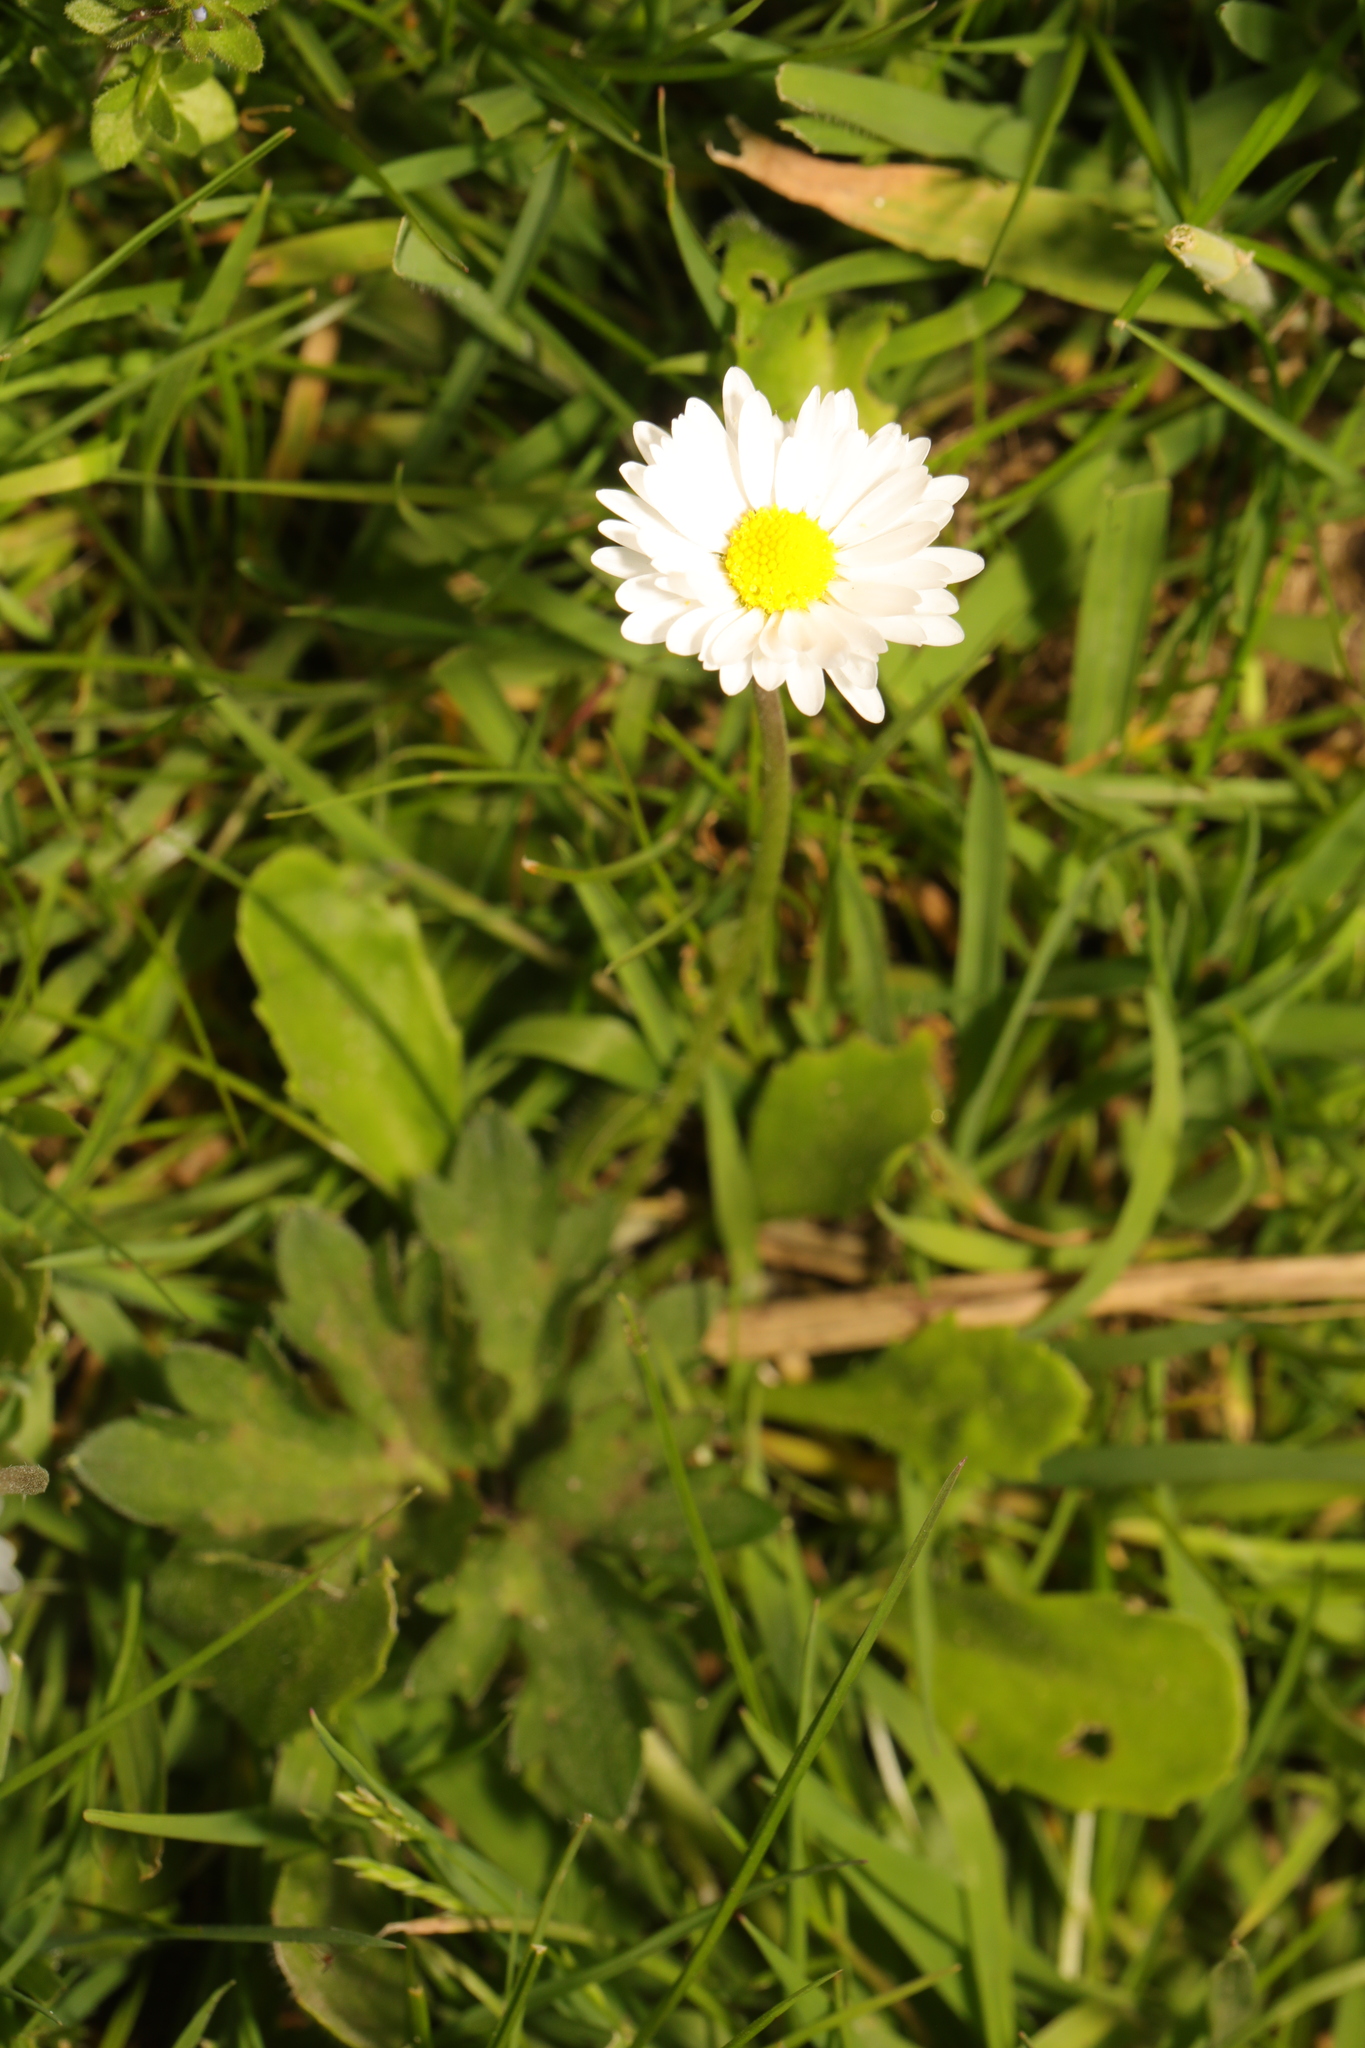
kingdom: Plantae
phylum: Tracheophyta
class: Magnoliopsida
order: Asterales
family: Asteraceae
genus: Bellis
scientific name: Bellis perennis
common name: Lawndaisy
